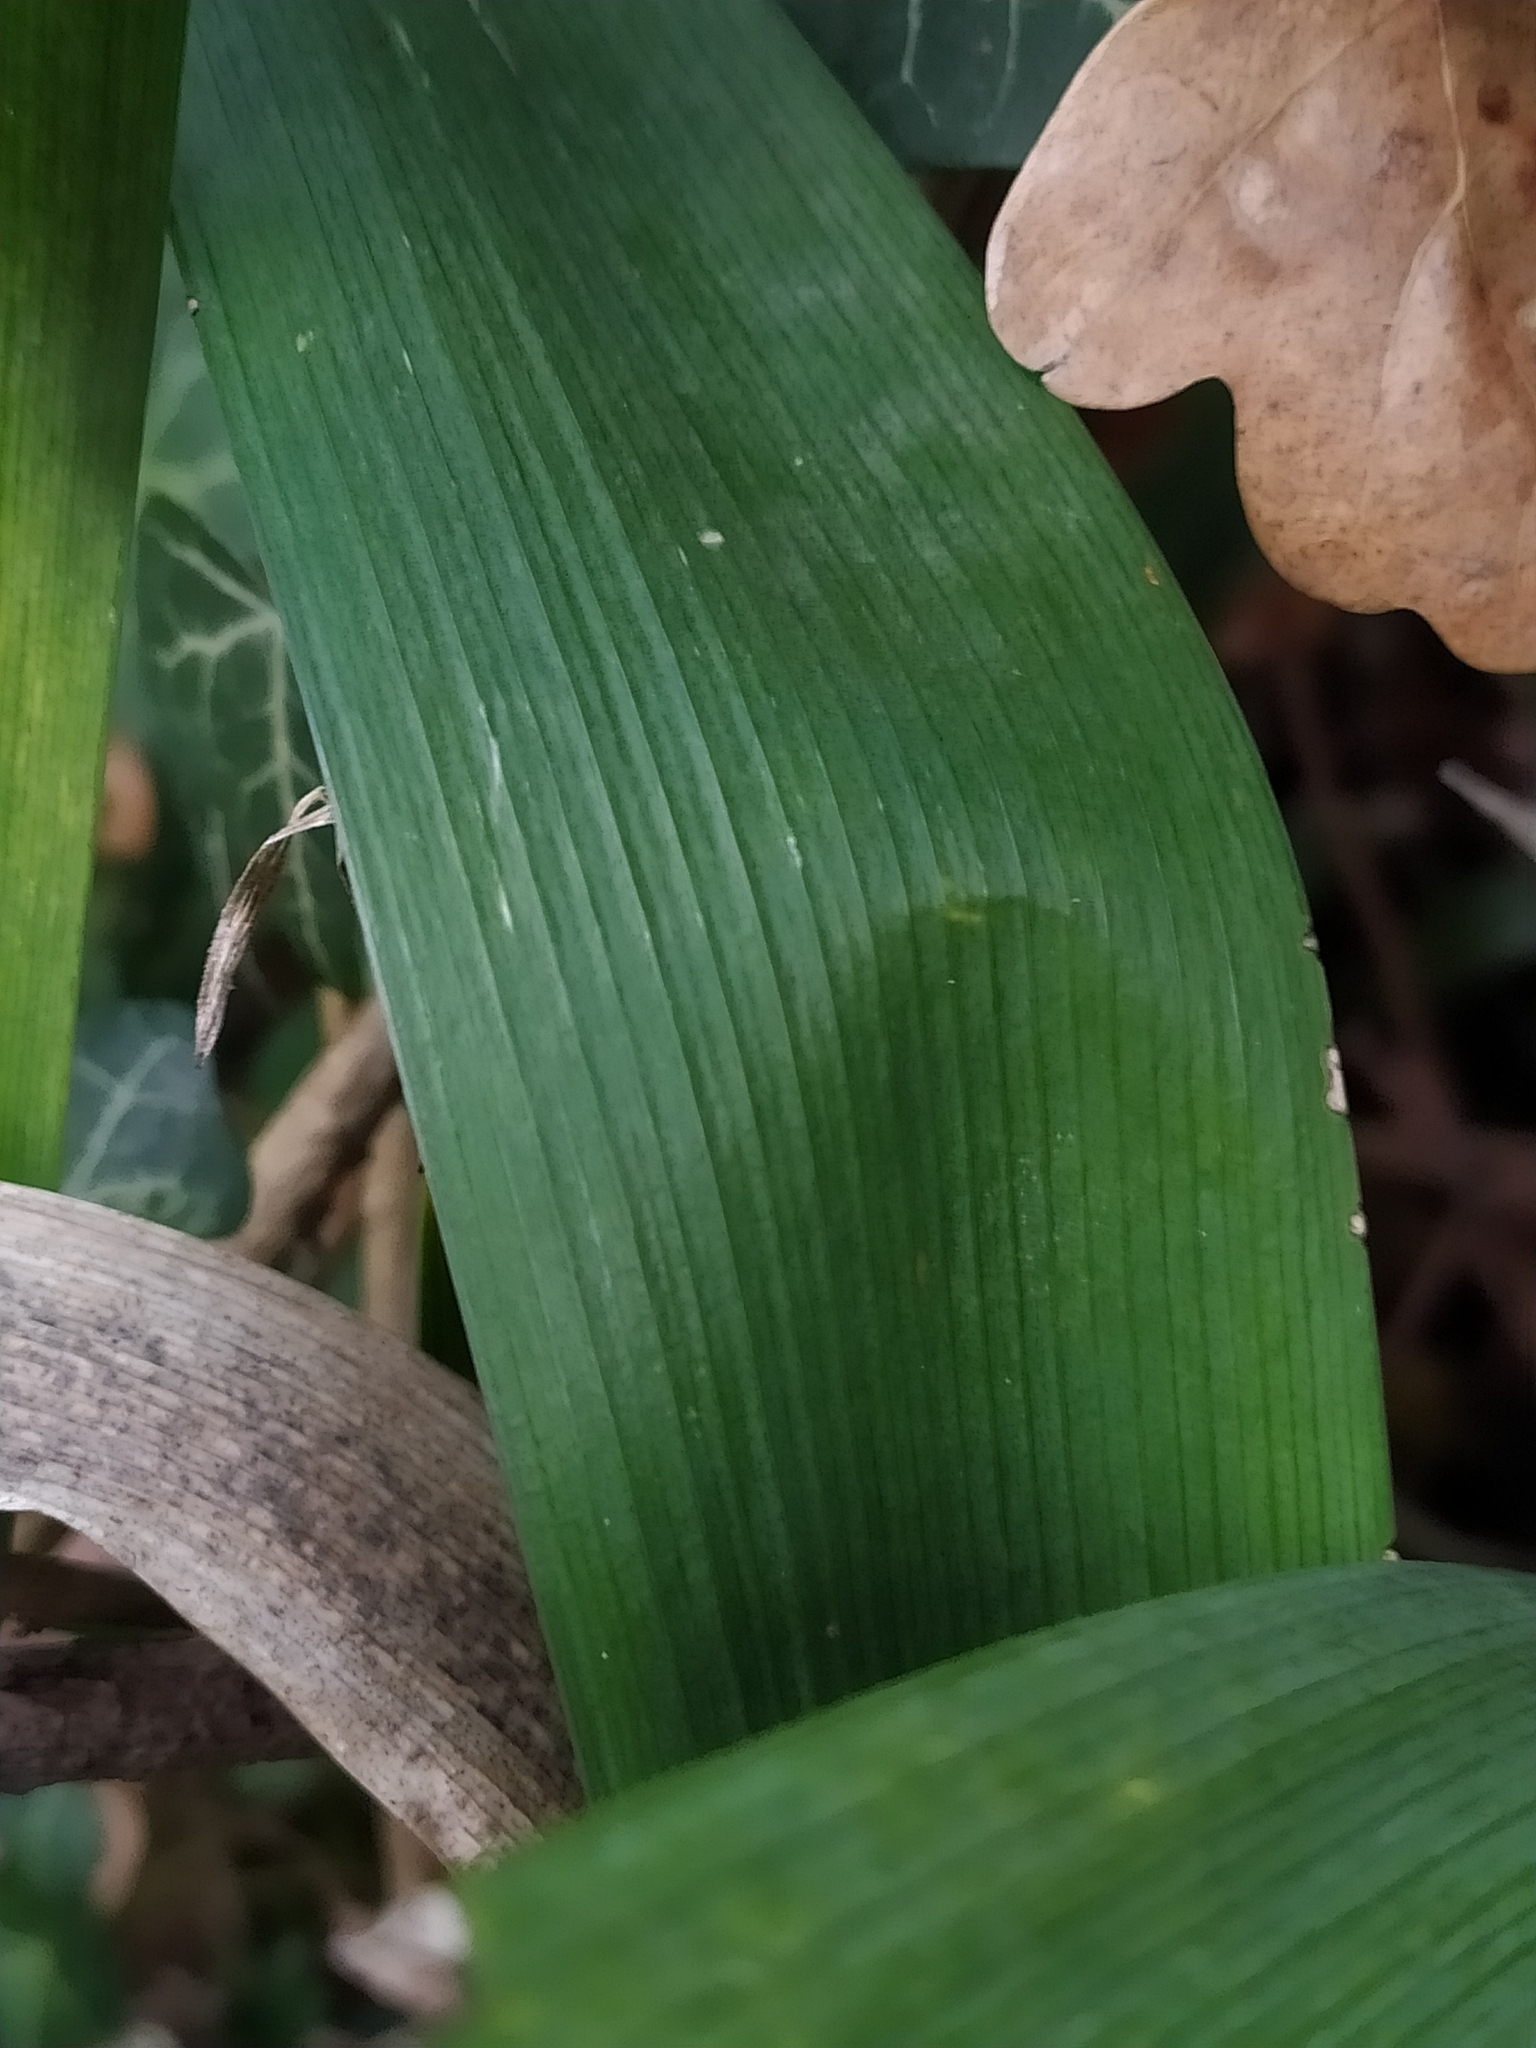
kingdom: Plantae
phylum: Tracheophyta
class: Liliopsida
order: Asparagales
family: Iridaceae
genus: Iris
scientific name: Iris foetidissima
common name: Stinking iris
